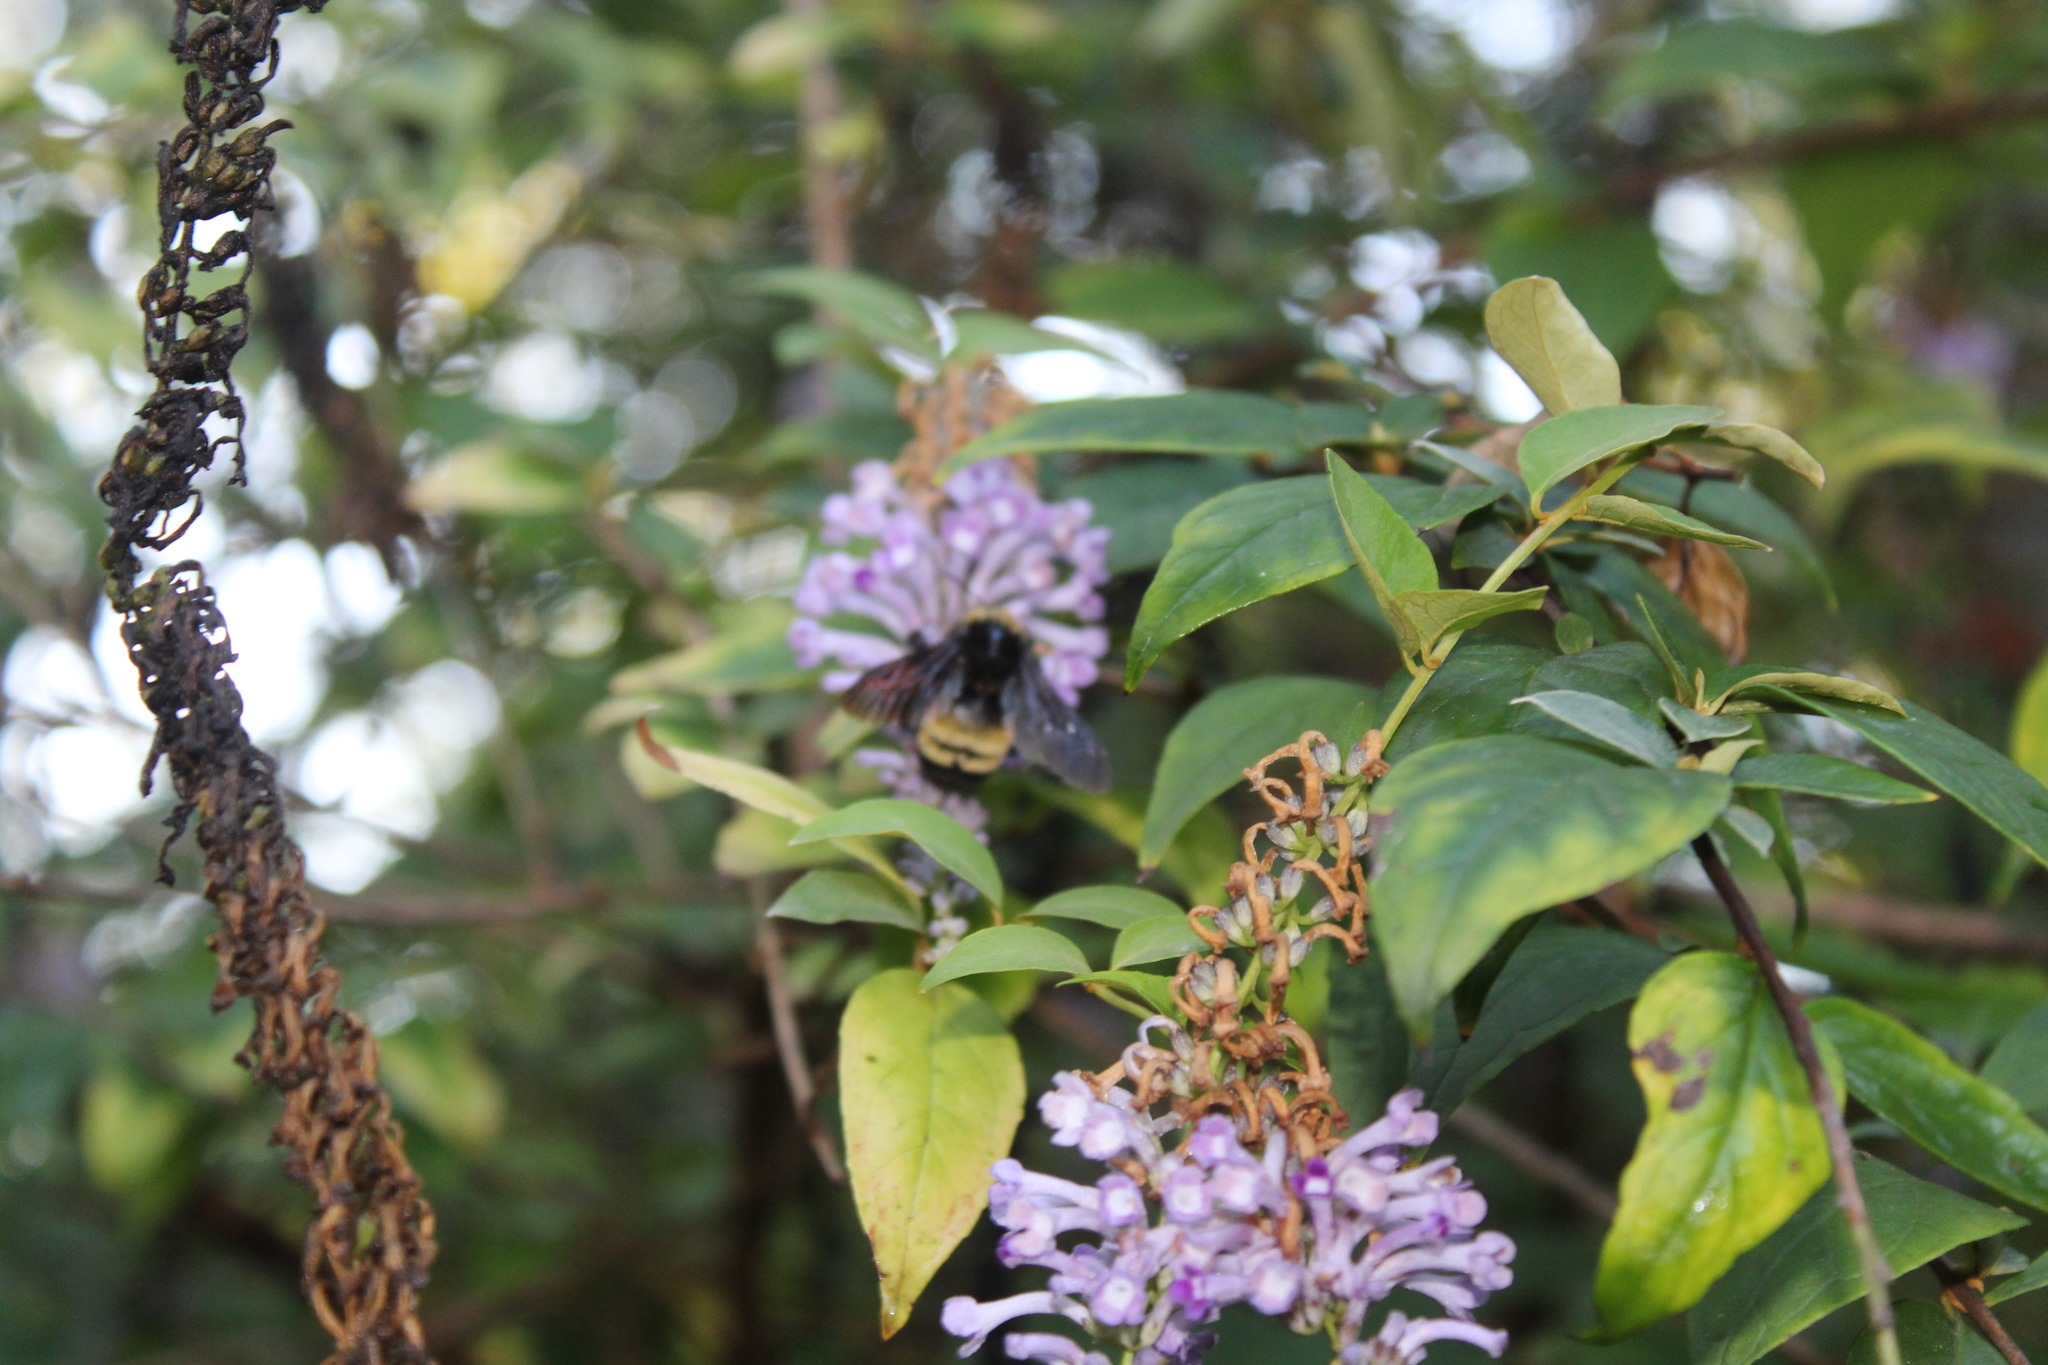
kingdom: Animalia
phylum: Arthropoda
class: Insecta
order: Hymenoptera
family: Apidae
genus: Bombus
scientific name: Bombus pensylvanicus
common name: Bumble bee
